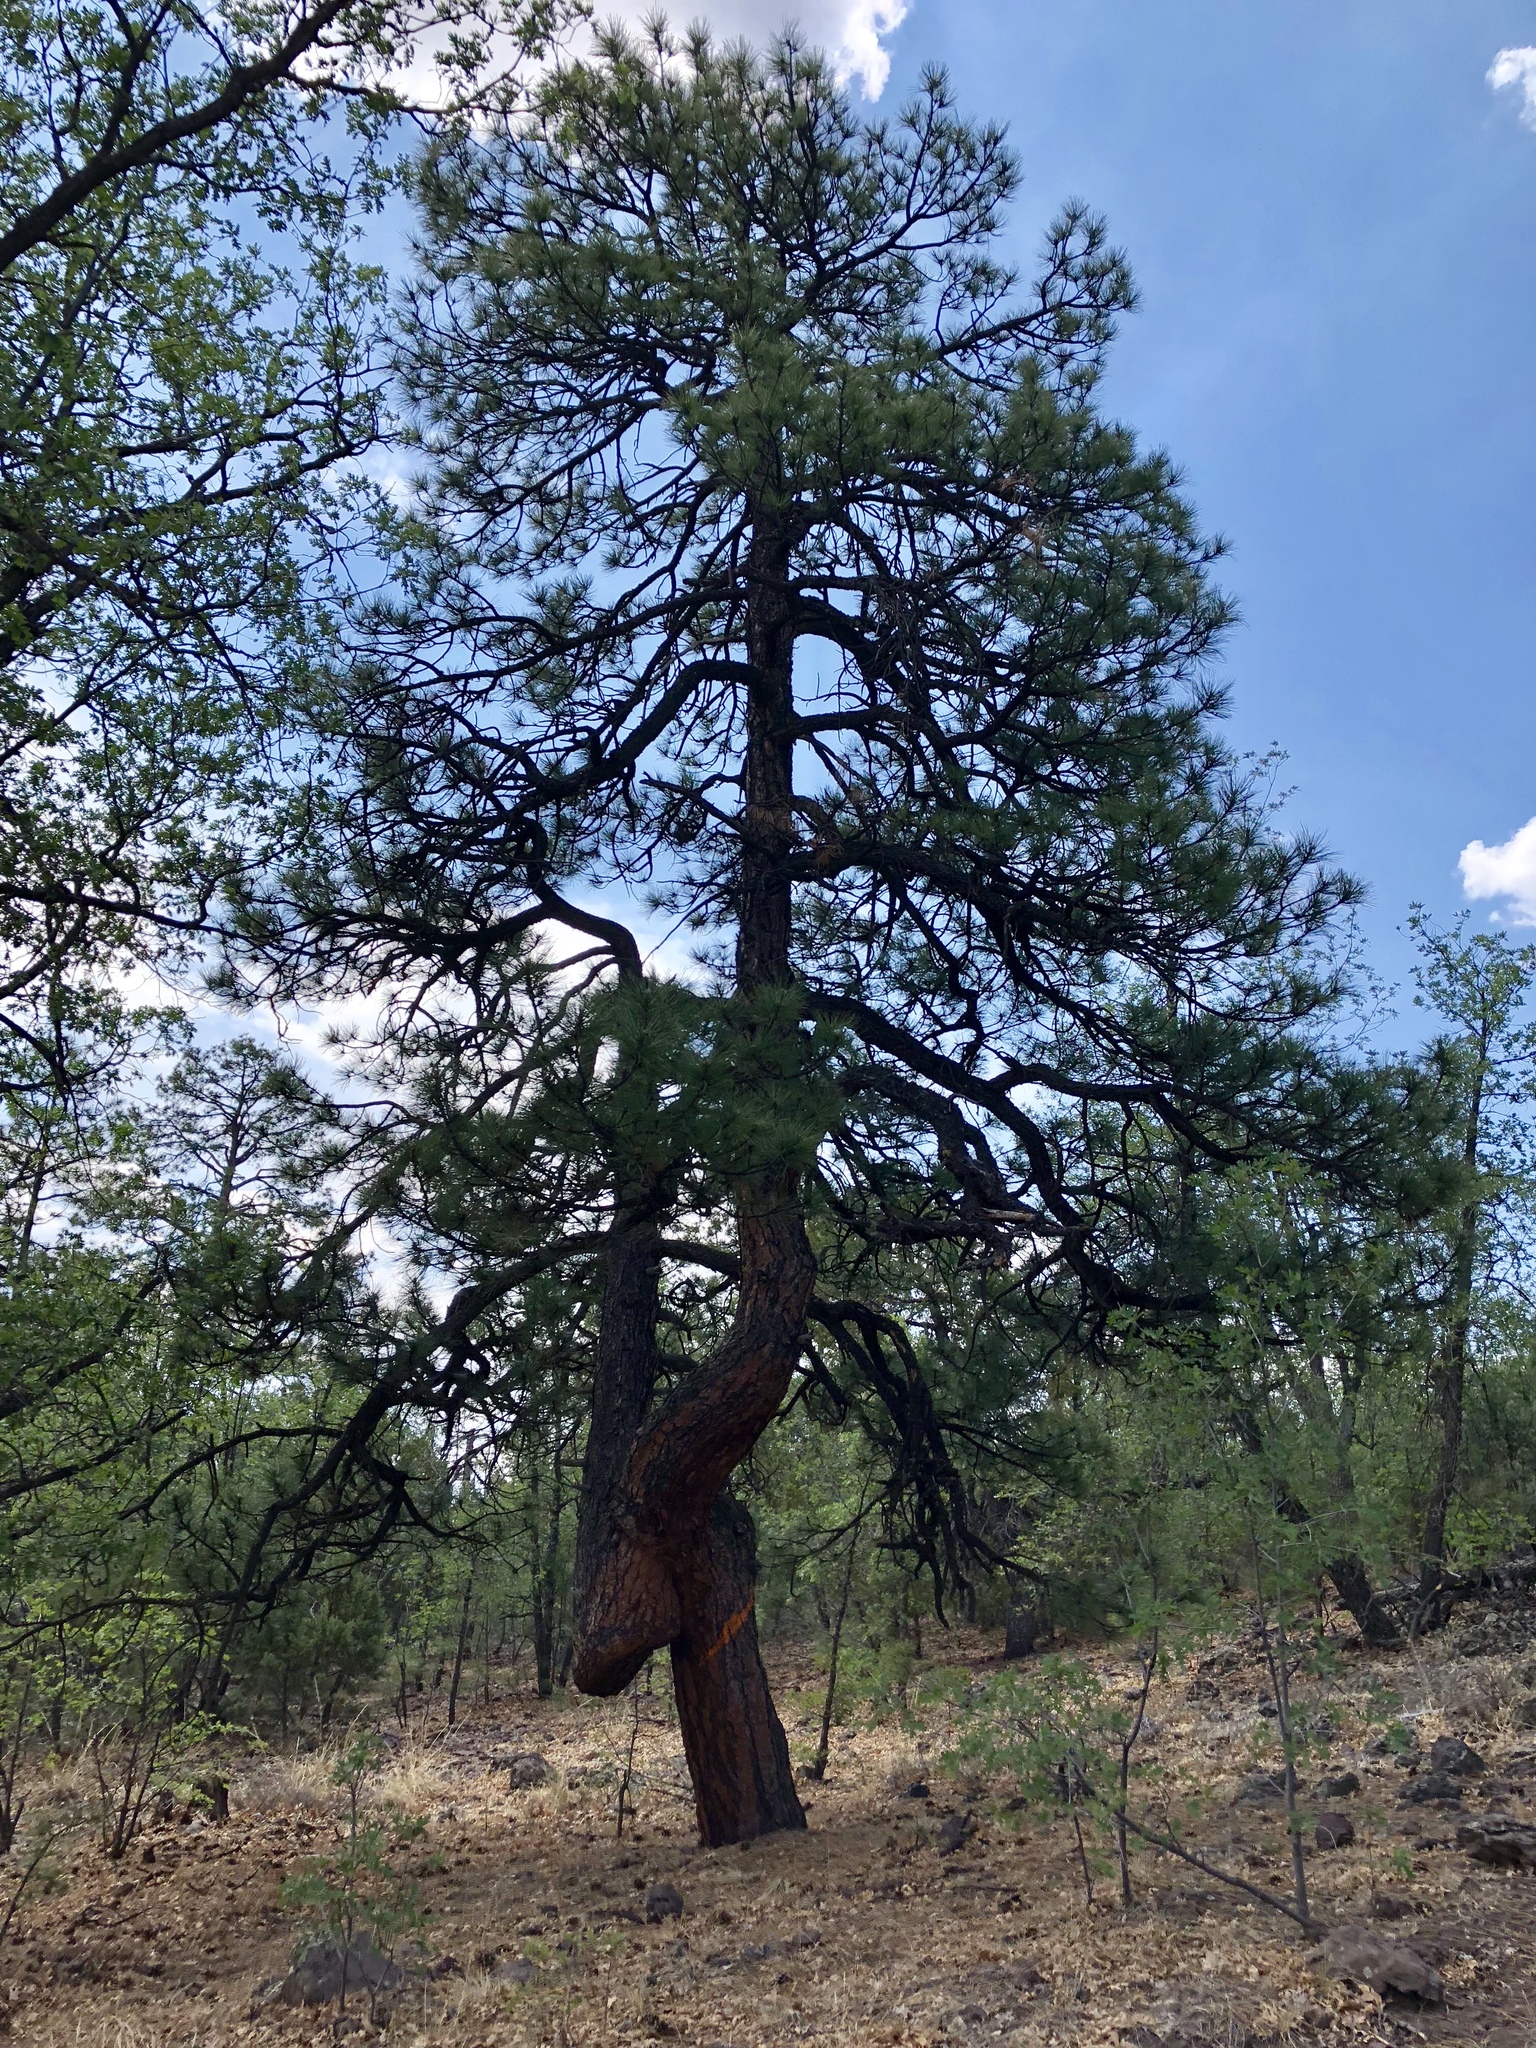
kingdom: Plantae
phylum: Tracheophyta
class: Pinopsida
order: Pinales
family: Pinaceae
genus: Pinus
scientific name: Pinus ponderosa
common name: Western yellow-pine
